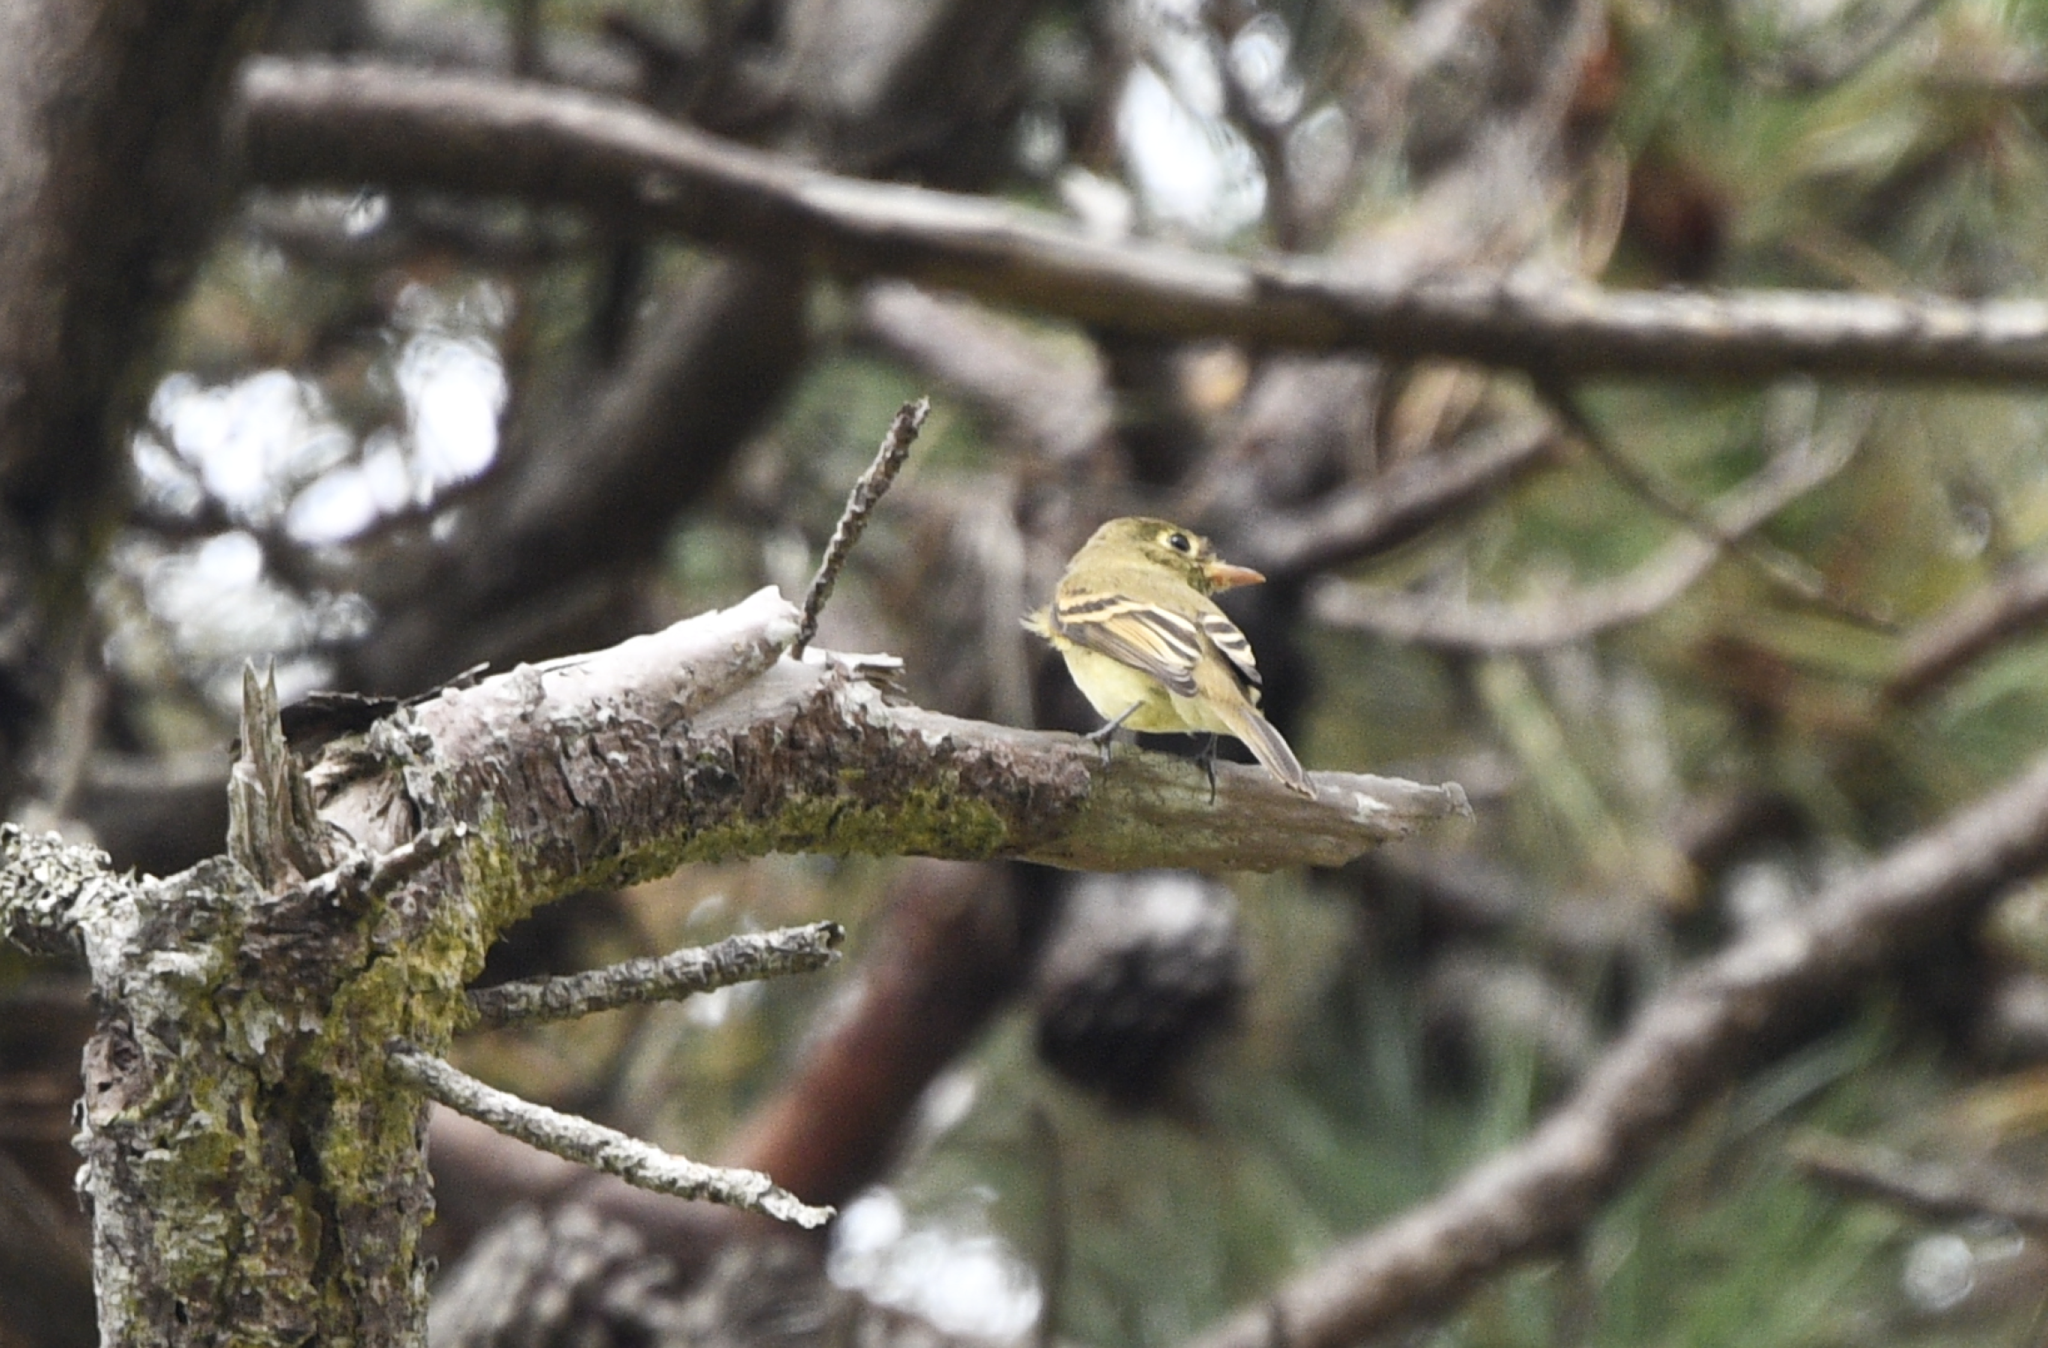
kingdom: Animalia
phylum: Chordata
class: Aves
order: Passeriformes
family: Tyrannidae
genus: Empidonax
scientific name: Empidonax difficilis
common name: Pacific-slope flycatcher
